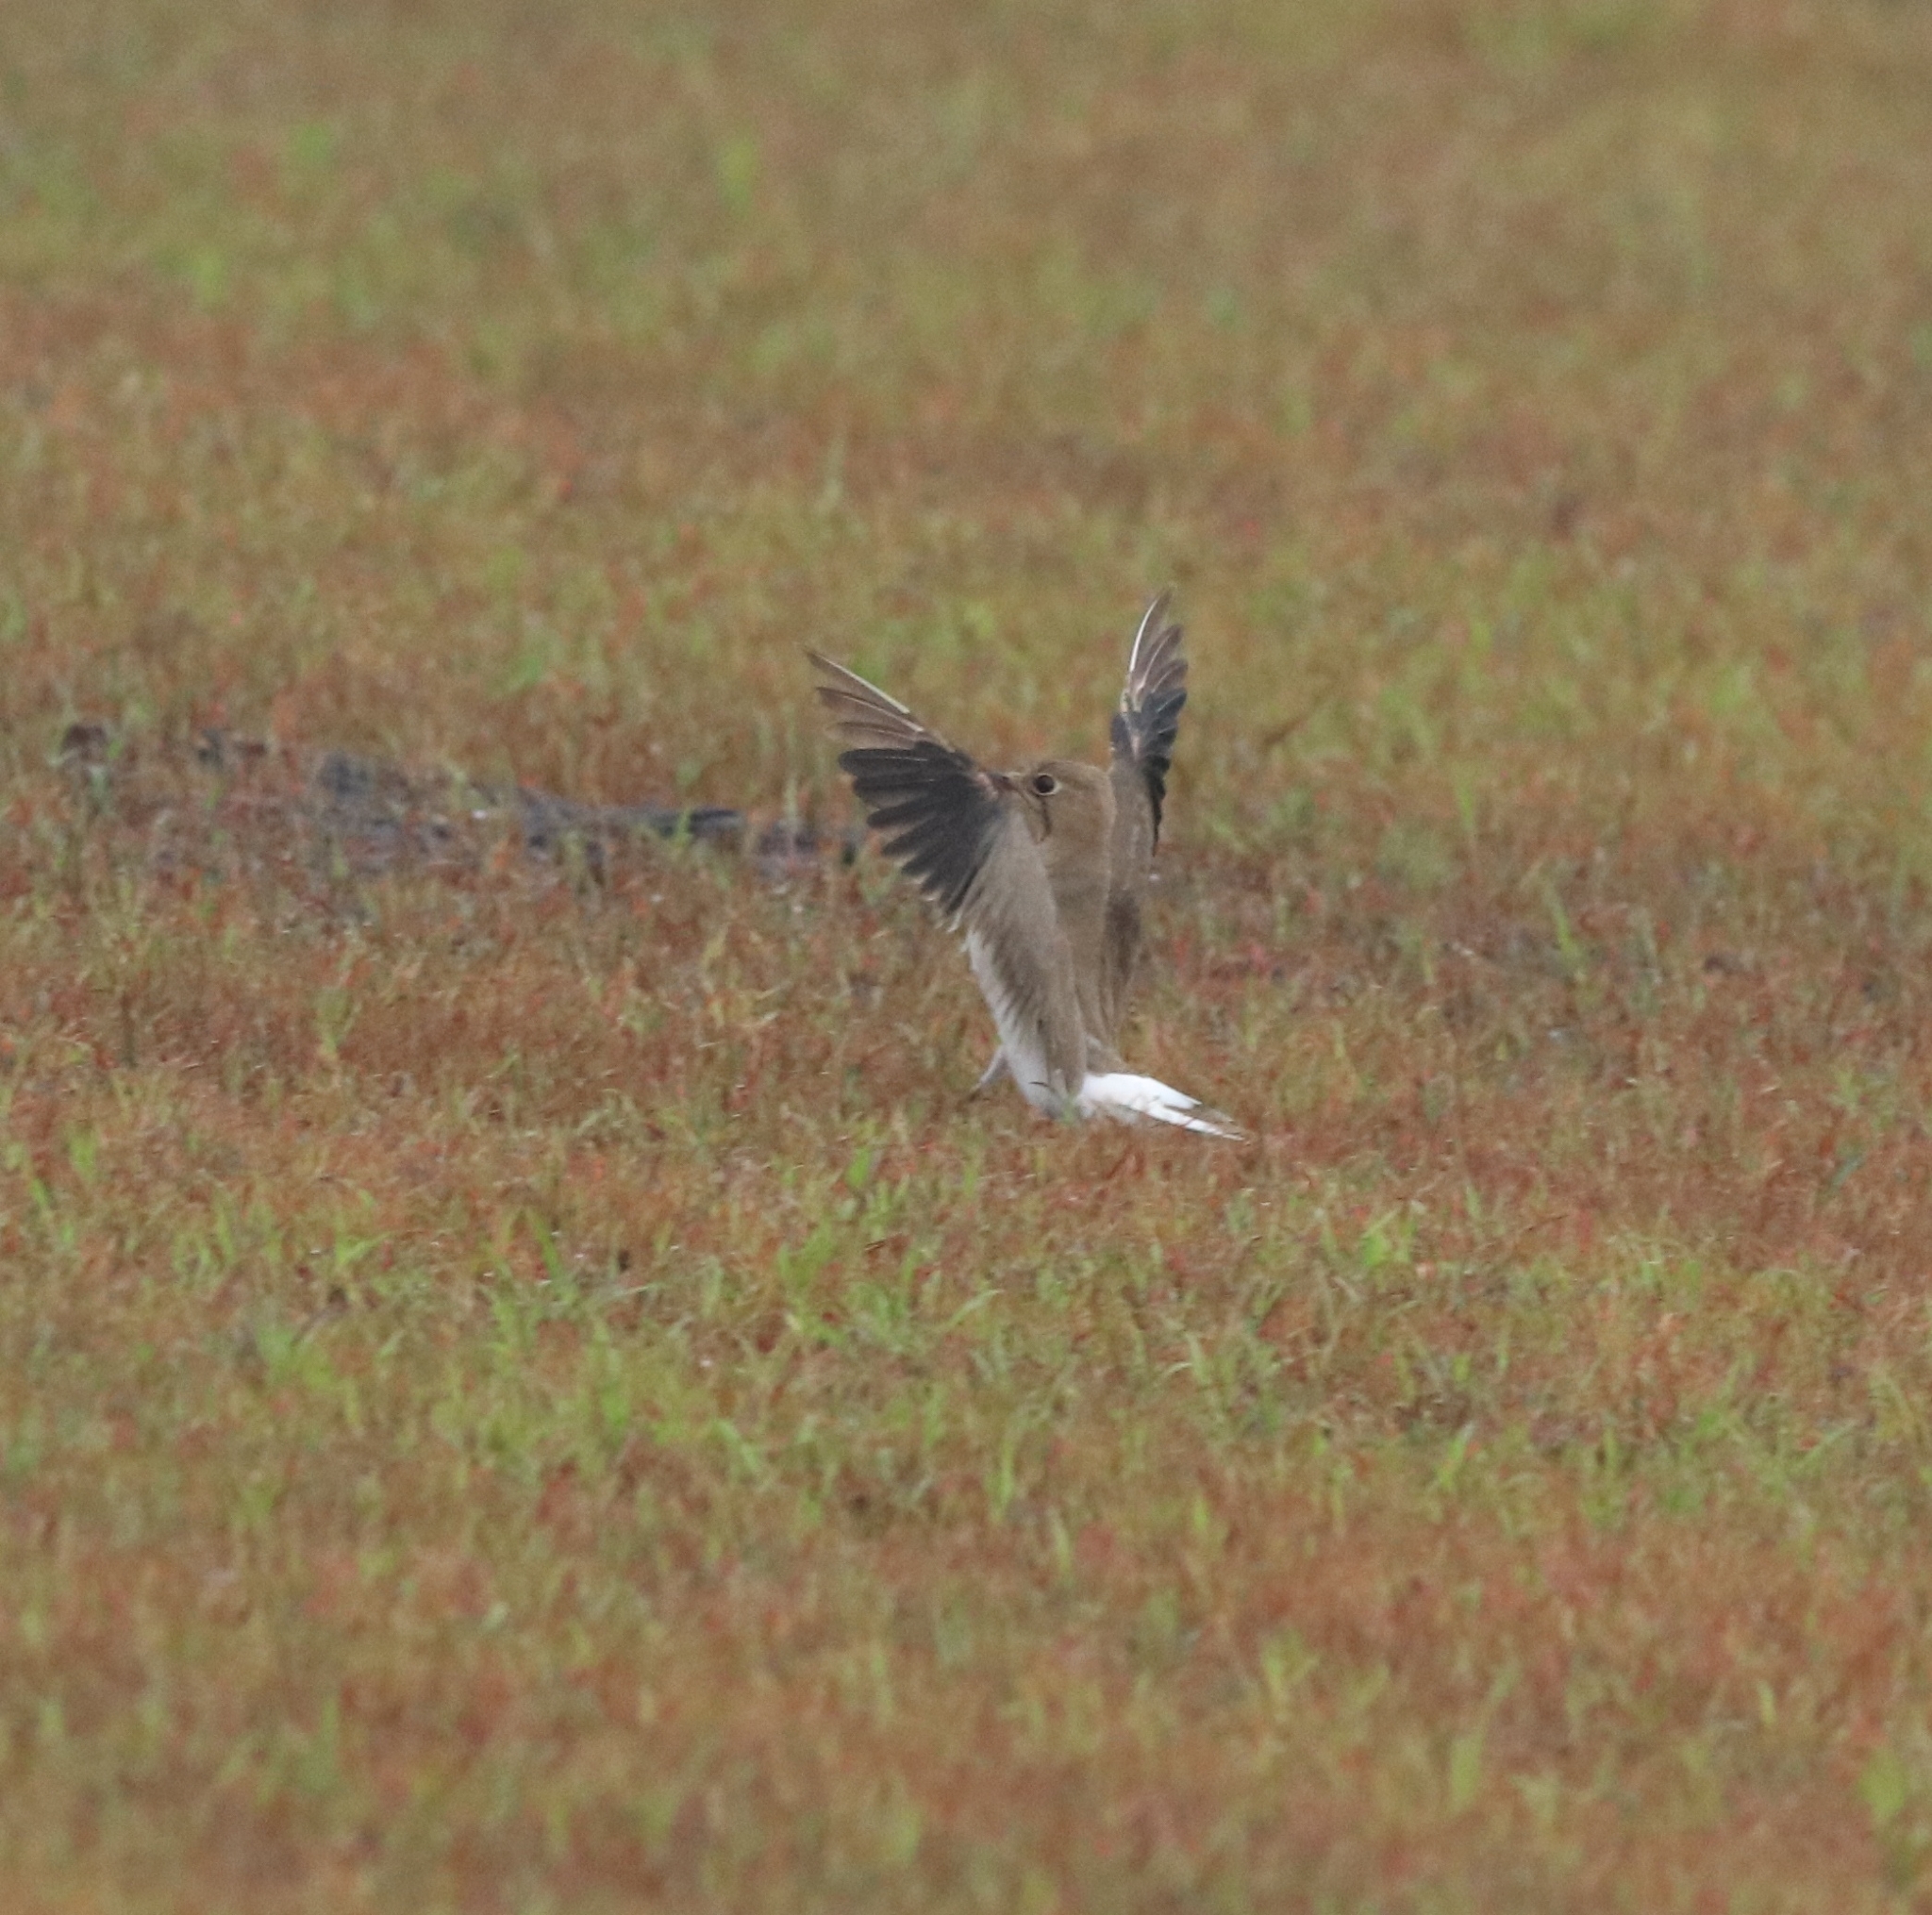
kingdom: Animalia
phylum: Chordata
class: Aves
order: Charadriiformes
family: Glareolidae
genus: Glareola
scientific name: Glareola pratincola
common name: Collared pratincole
